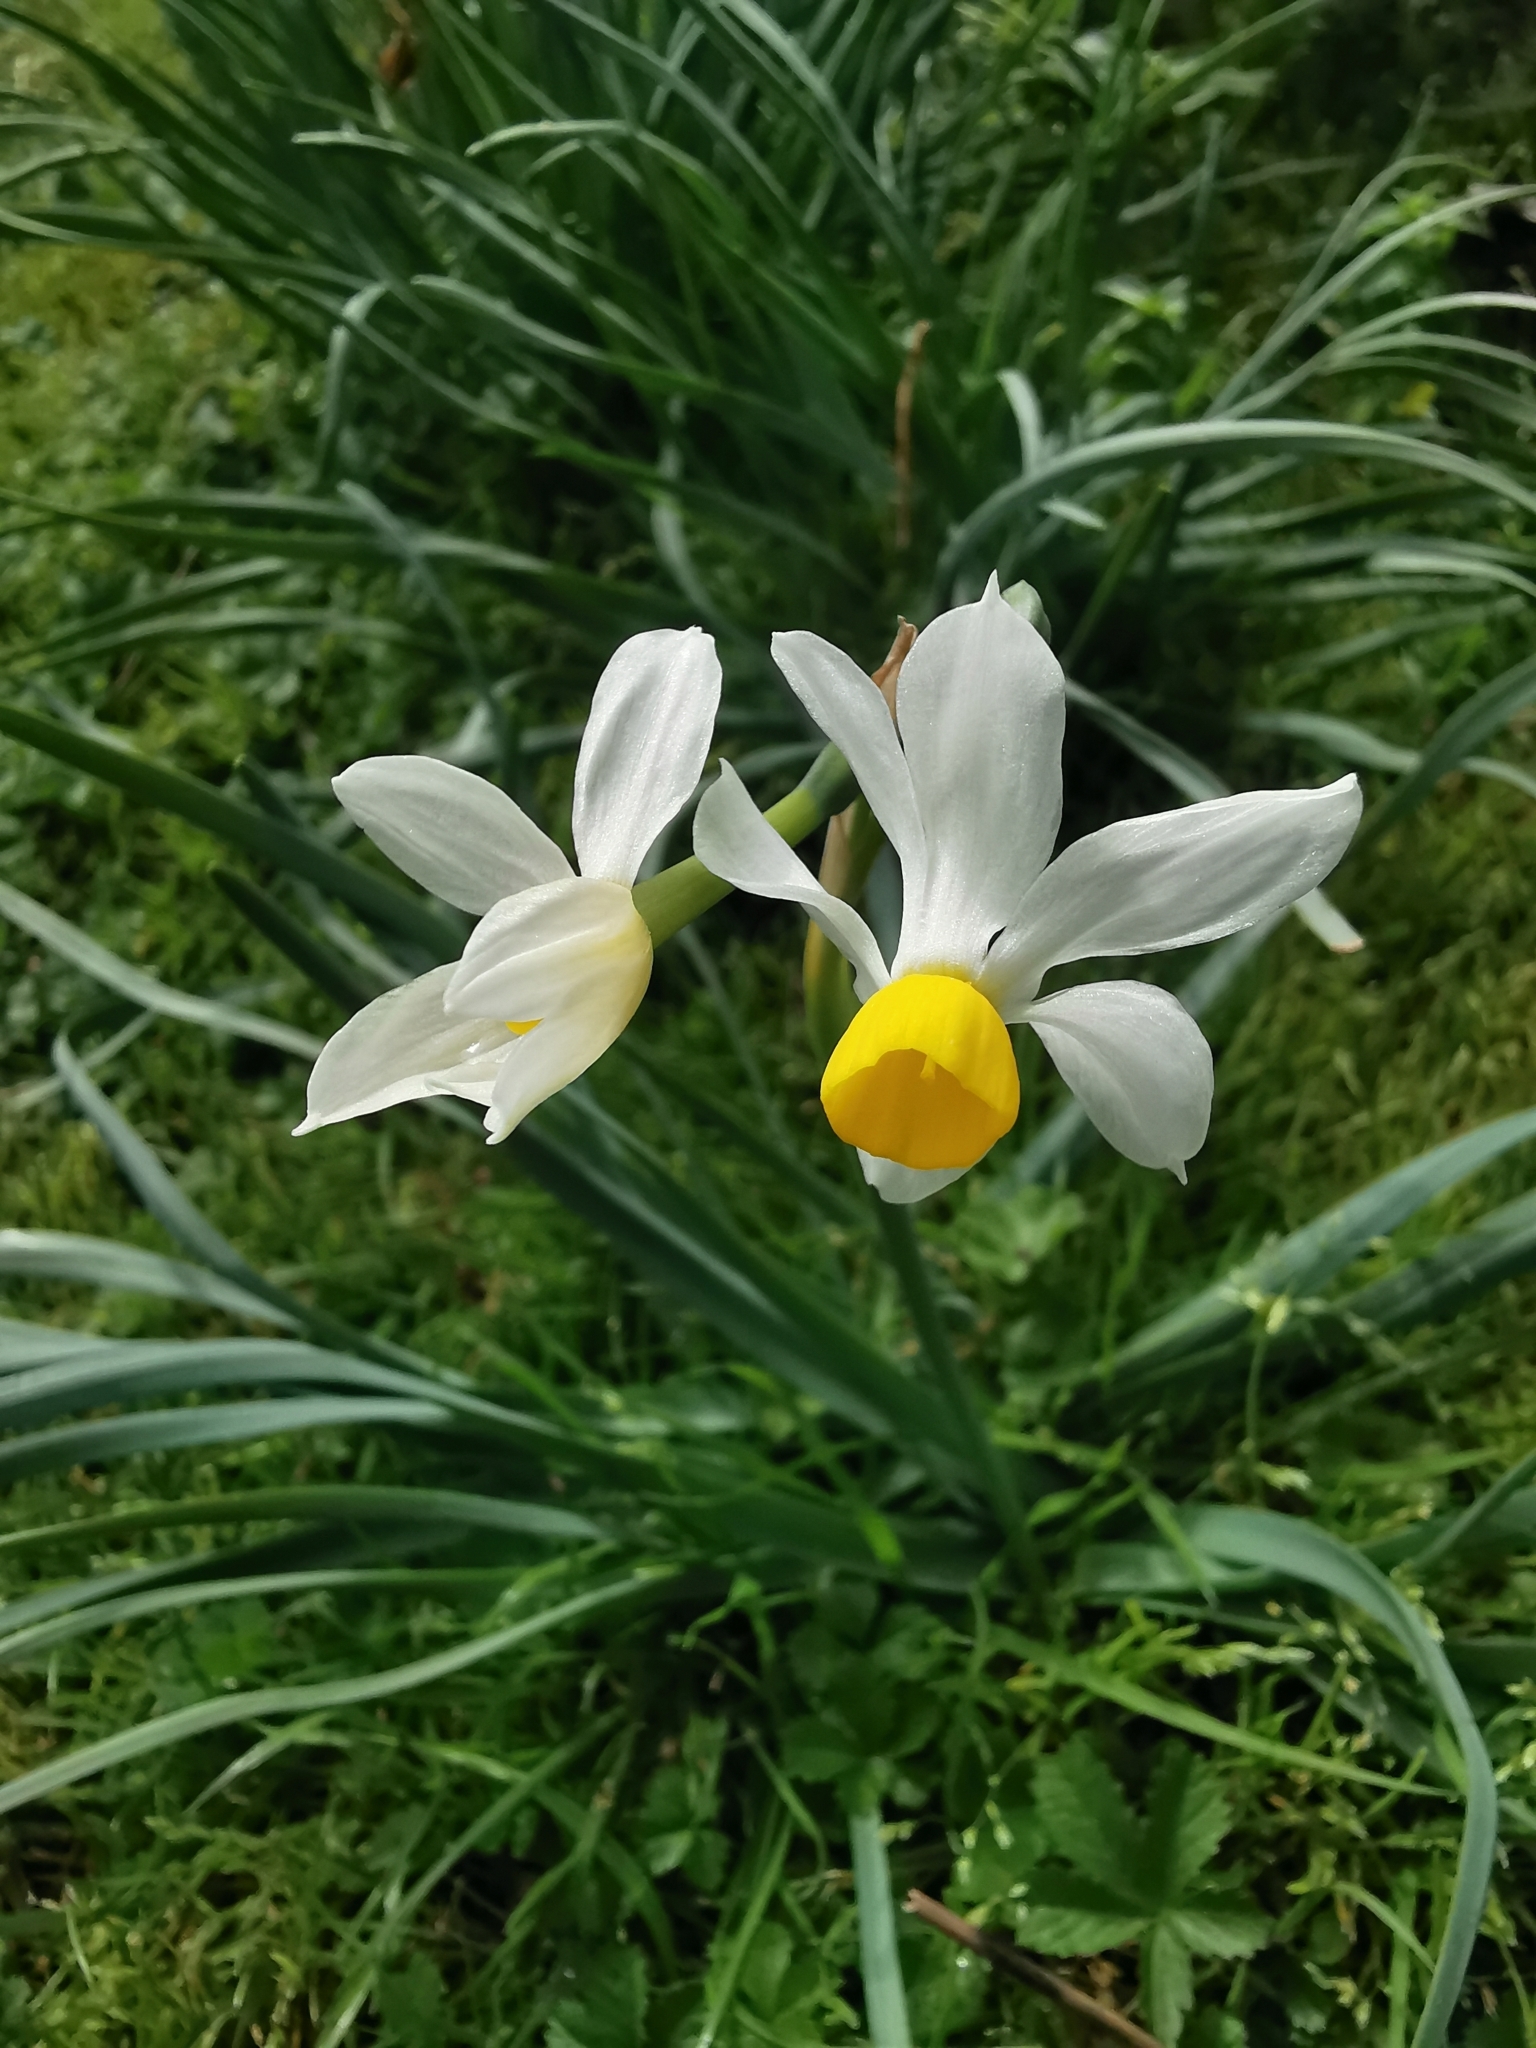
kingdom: Plantae
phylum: Tracheophyta
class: Liliopsida
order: Asparagales
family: Amaryllidaceae
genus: Narcissus
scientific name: Narcissus tazetta
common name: Bunch-flowered daffodil
